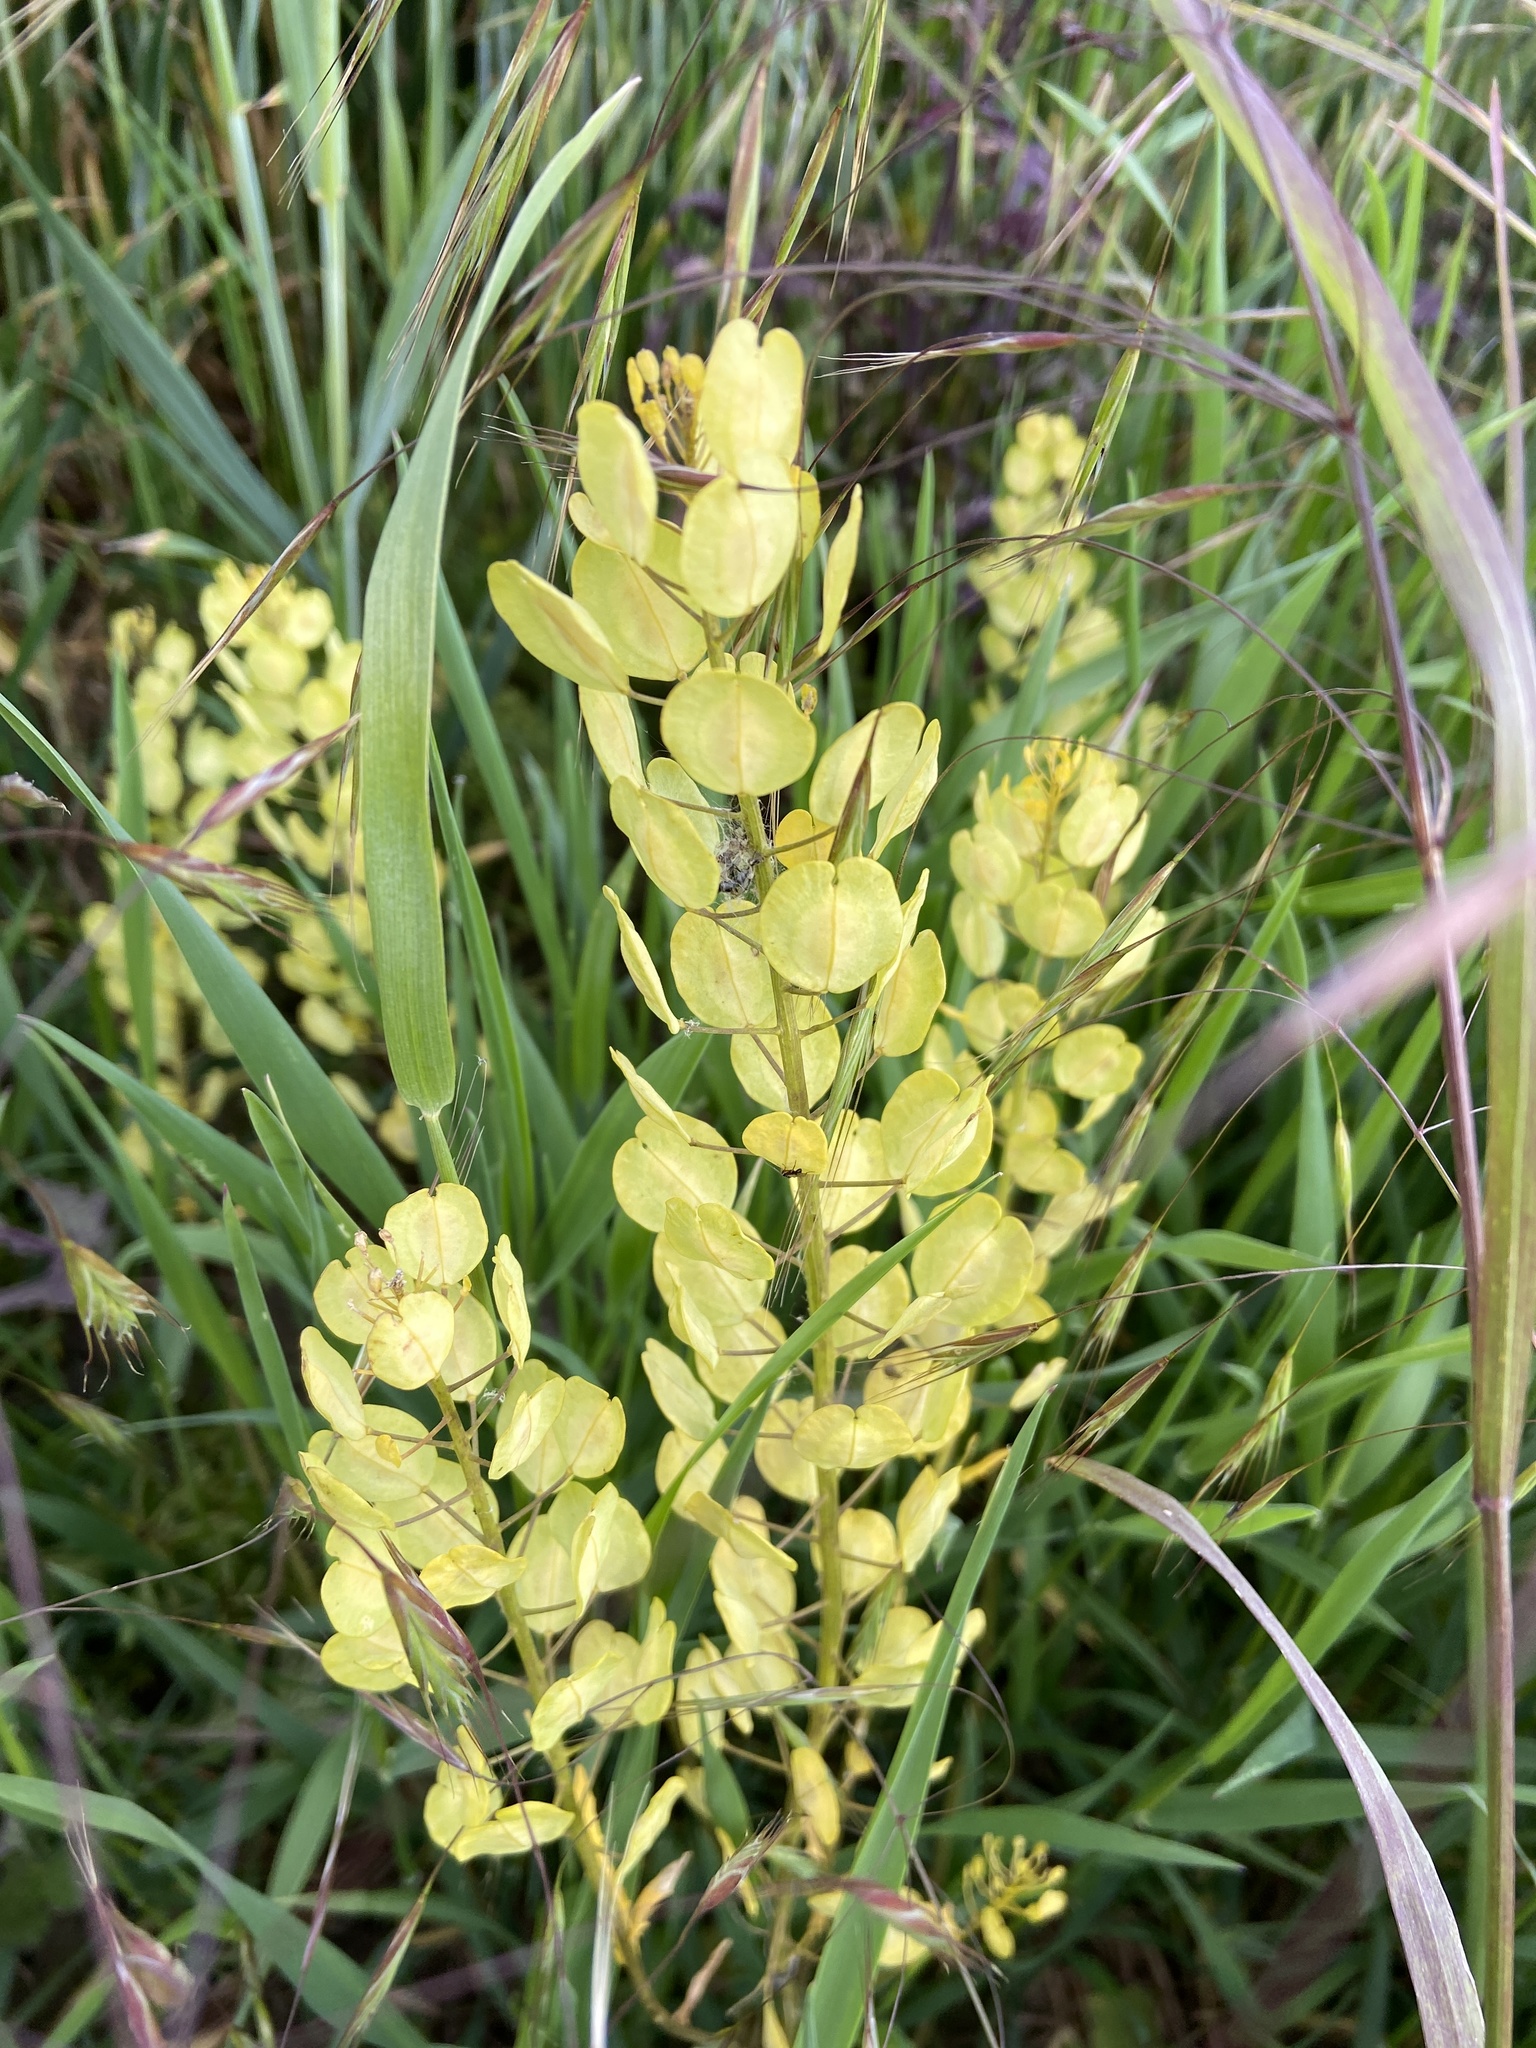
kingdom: Plantae
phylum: Tracheophyta
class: Magnoliopsida
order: Brassicales
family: Brassicaceae
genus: Thlaspi
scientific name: Thlaspi arvense
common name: Field pennycress
